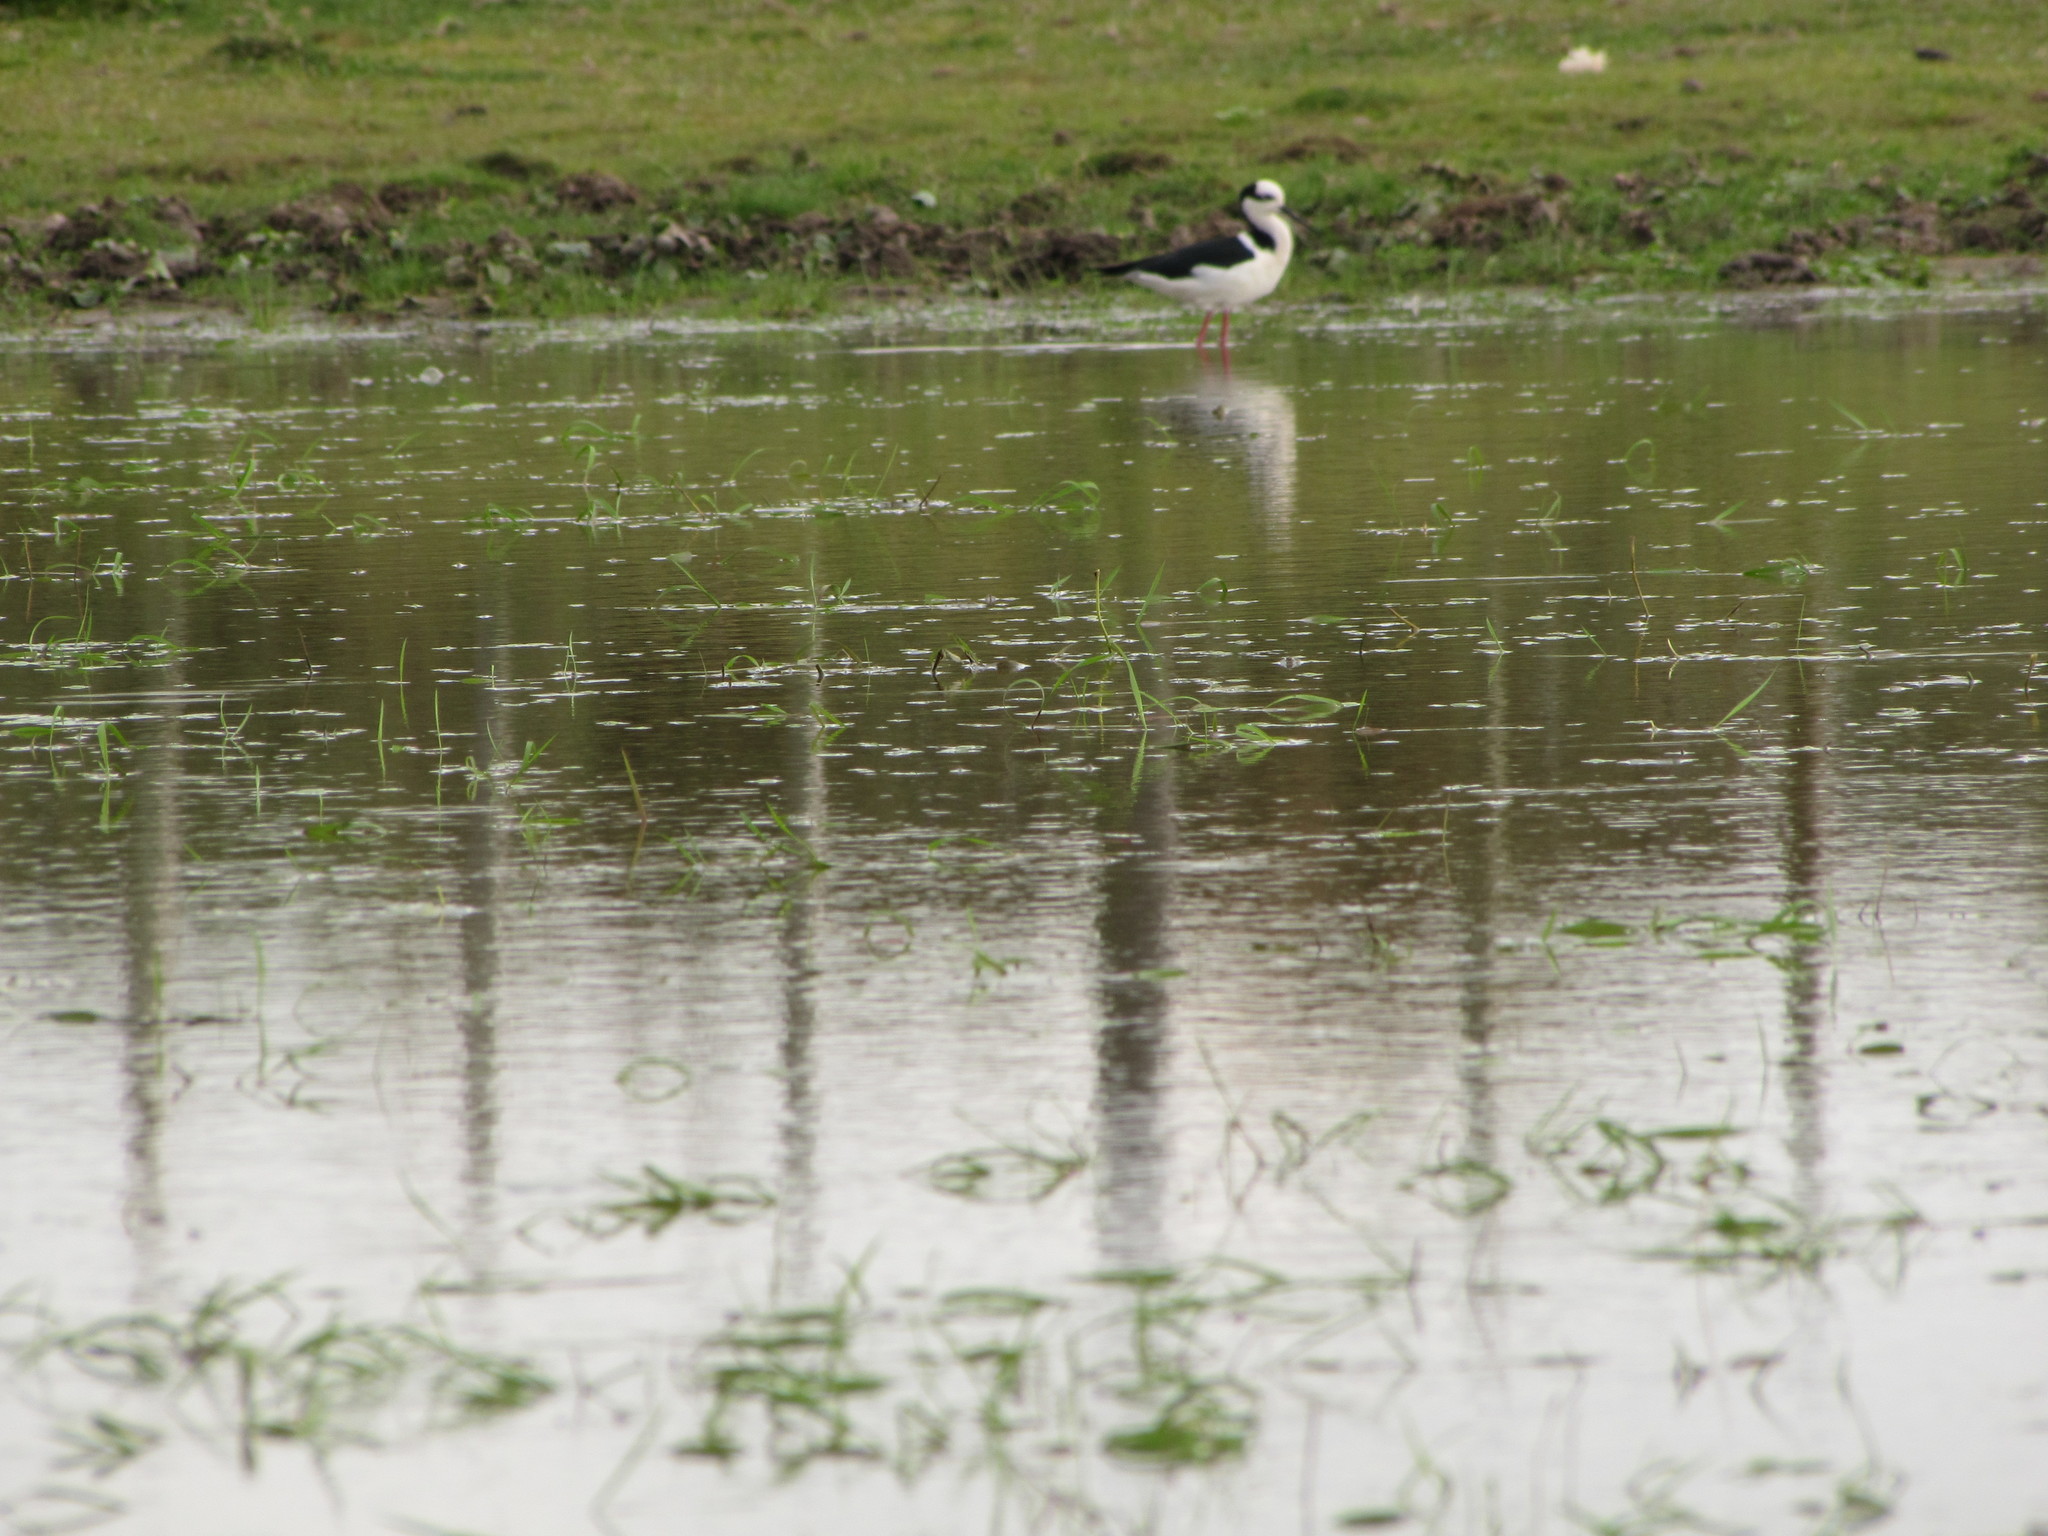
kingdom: Animalia
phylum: Chordata
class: Aves
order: Charadriiformes
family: Recurvirostridae
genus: Himantopus
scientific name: Himantopus mexicanus
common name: Black-necked stilt
